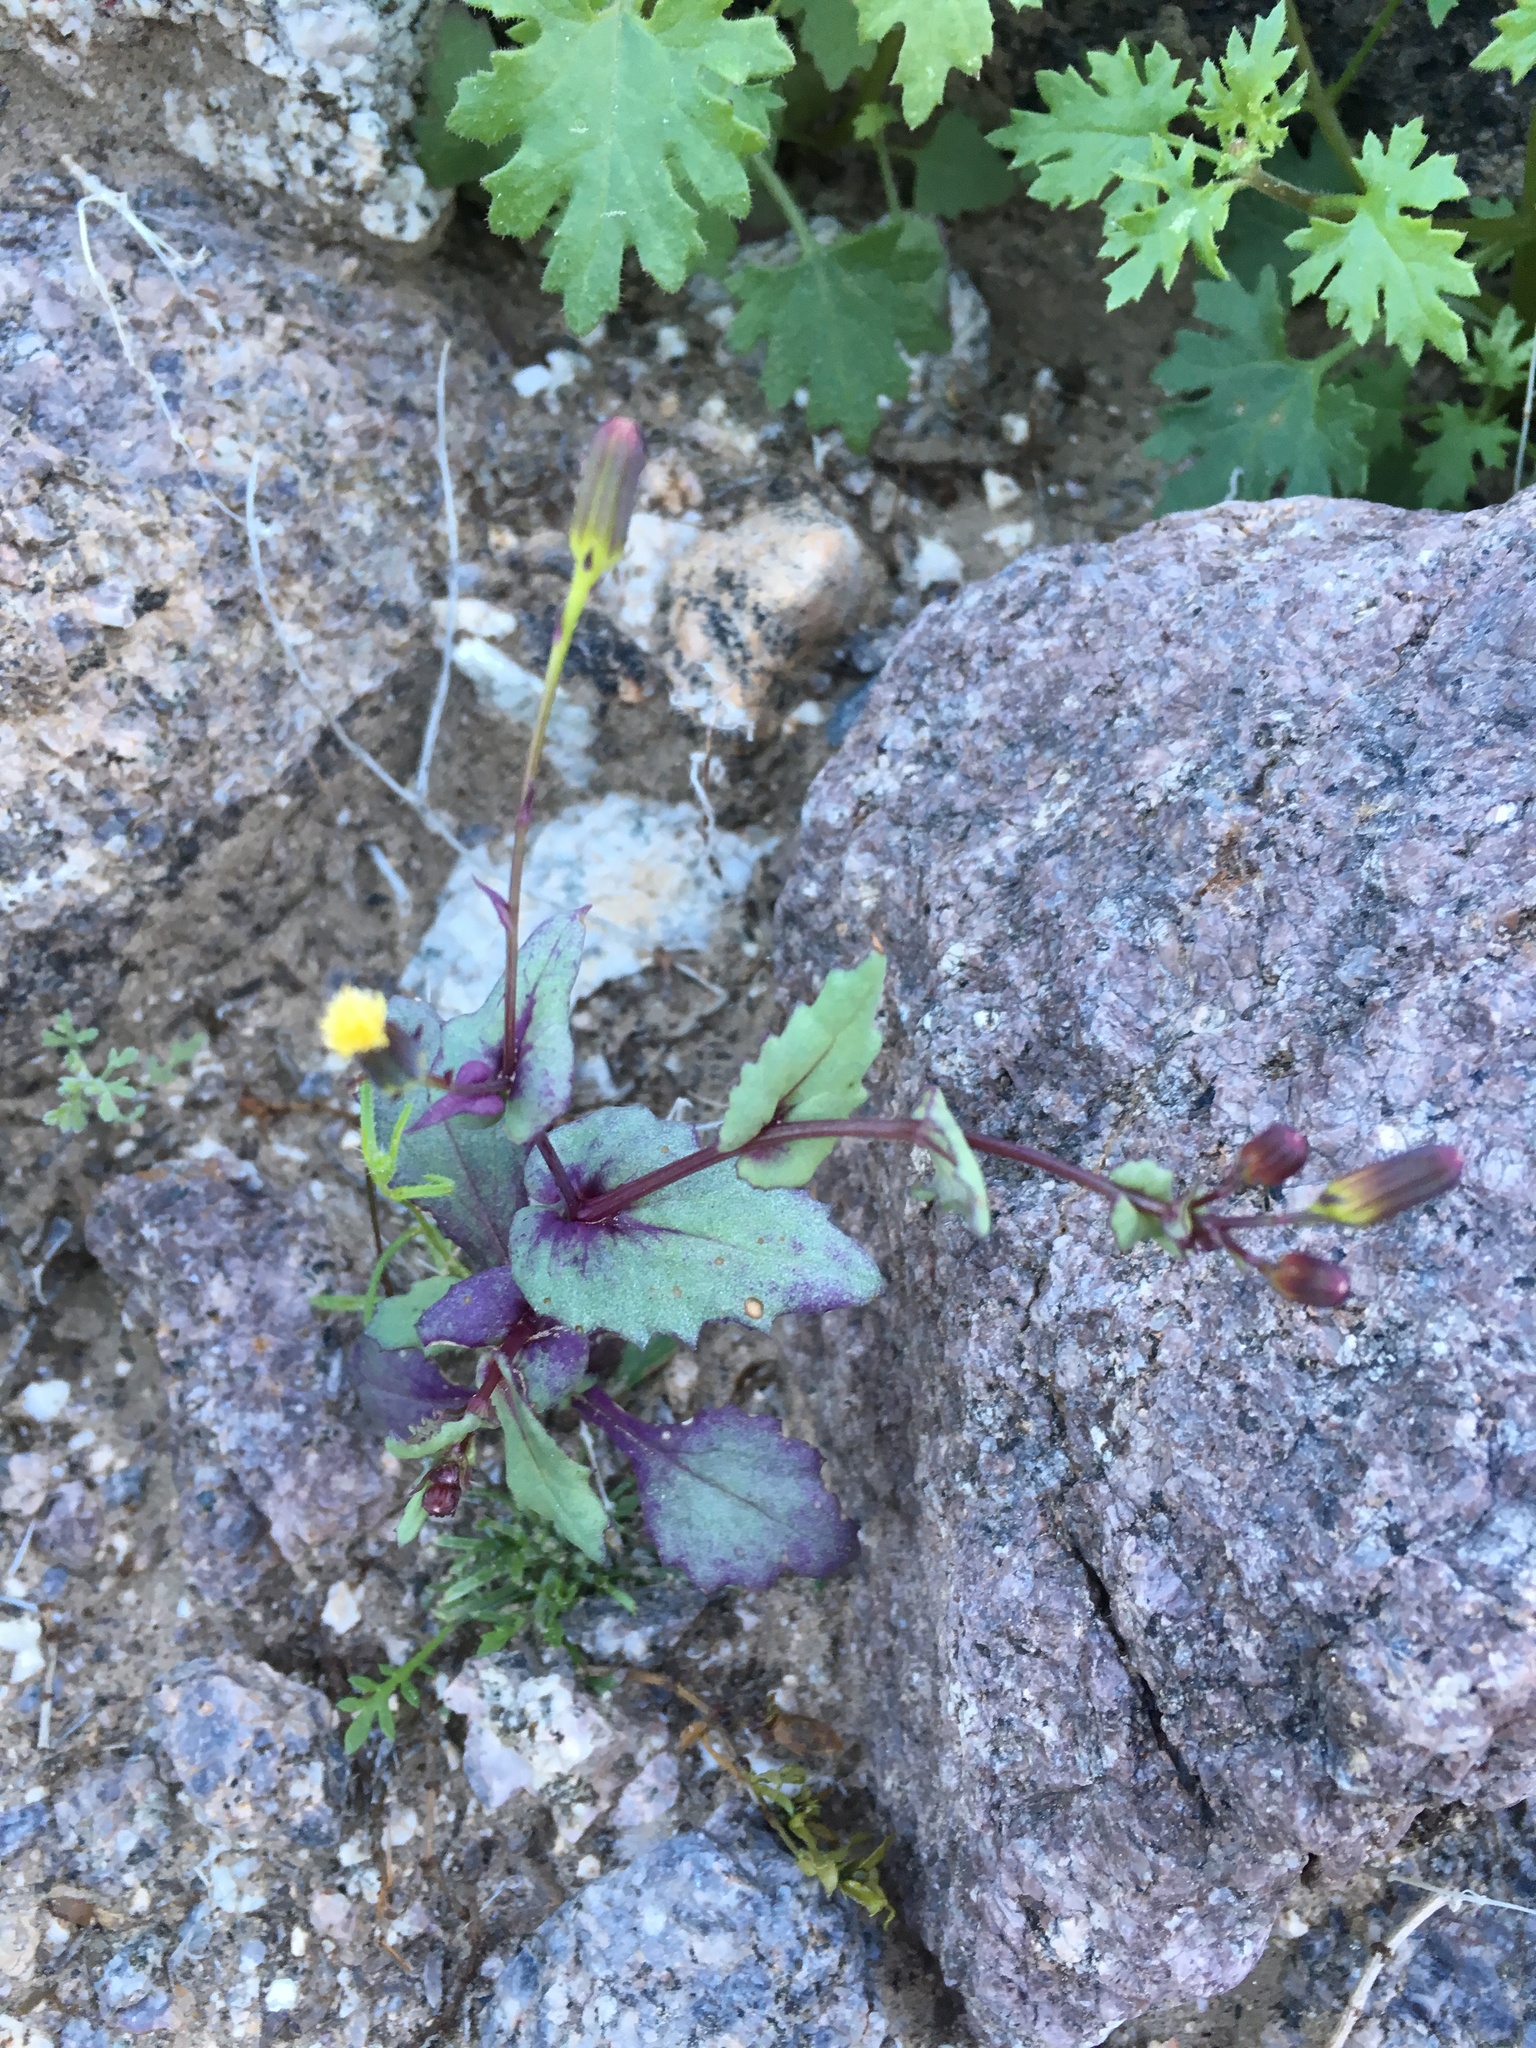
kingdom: Plantae
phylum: Tracheophyta
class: Magnoliopsida
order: Asterales
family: Asteraceae
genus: Senecio
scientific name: Senecio mohavensis
